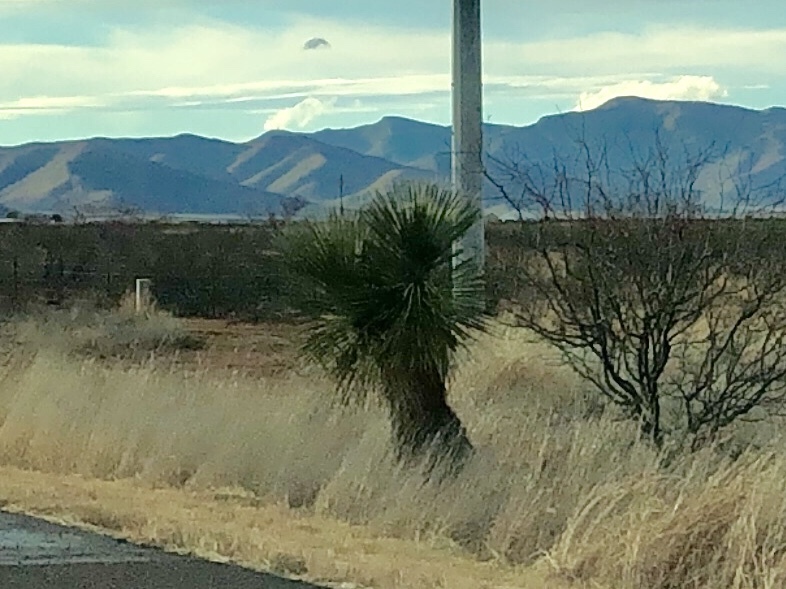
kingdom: Plantae
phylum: Tracheophyta
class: Liliopsida
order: Asparagales
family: Asparagaceae
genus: Yucca
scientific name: Yucca elata
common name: Palmella
